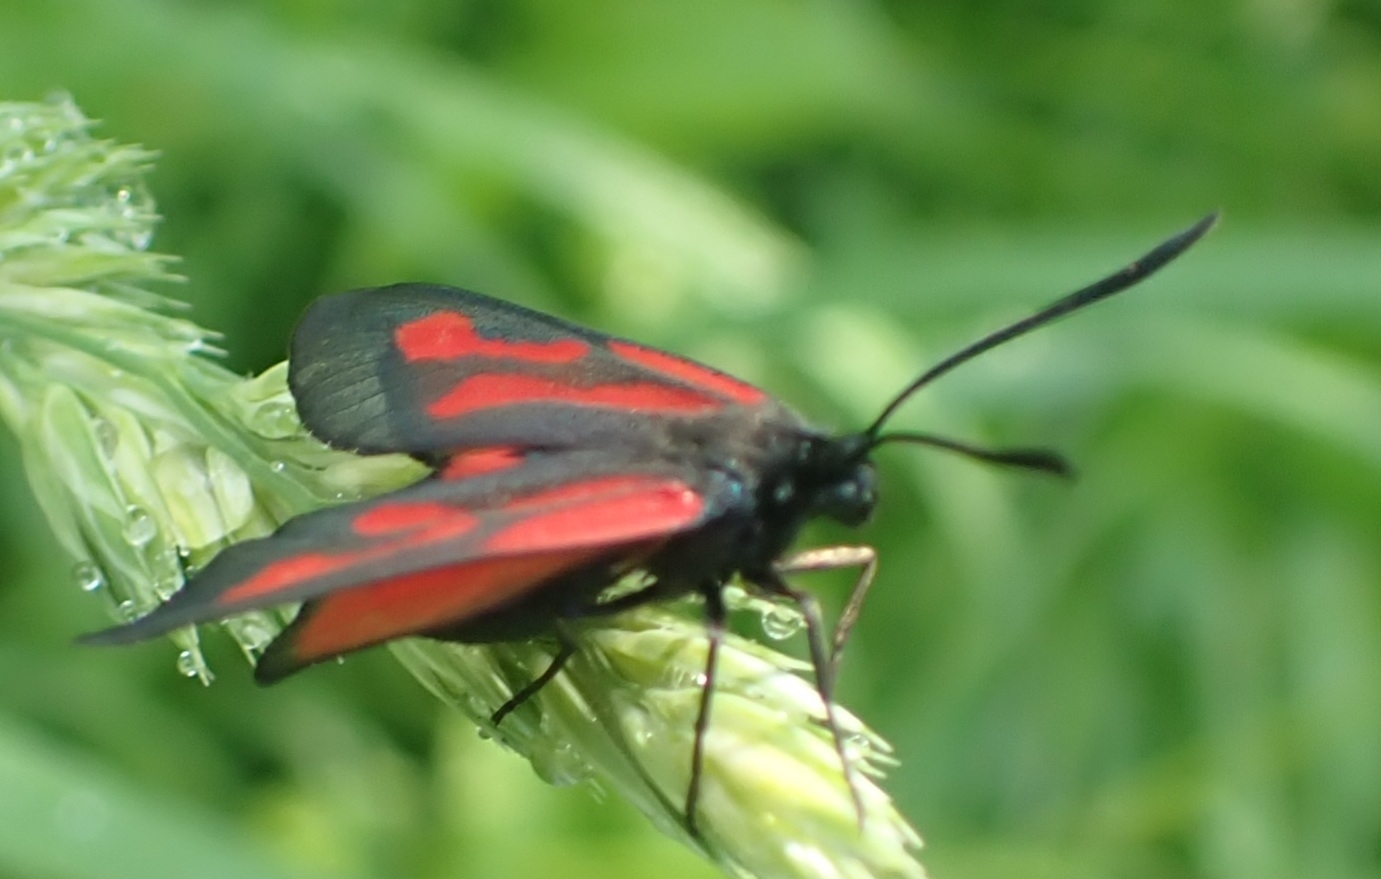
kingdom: Animalia
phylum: Arthropoda
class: Insecta
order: Lepidoptera
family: Zygaenidae
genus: Zygaena
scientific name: Zygaena osterodensis
